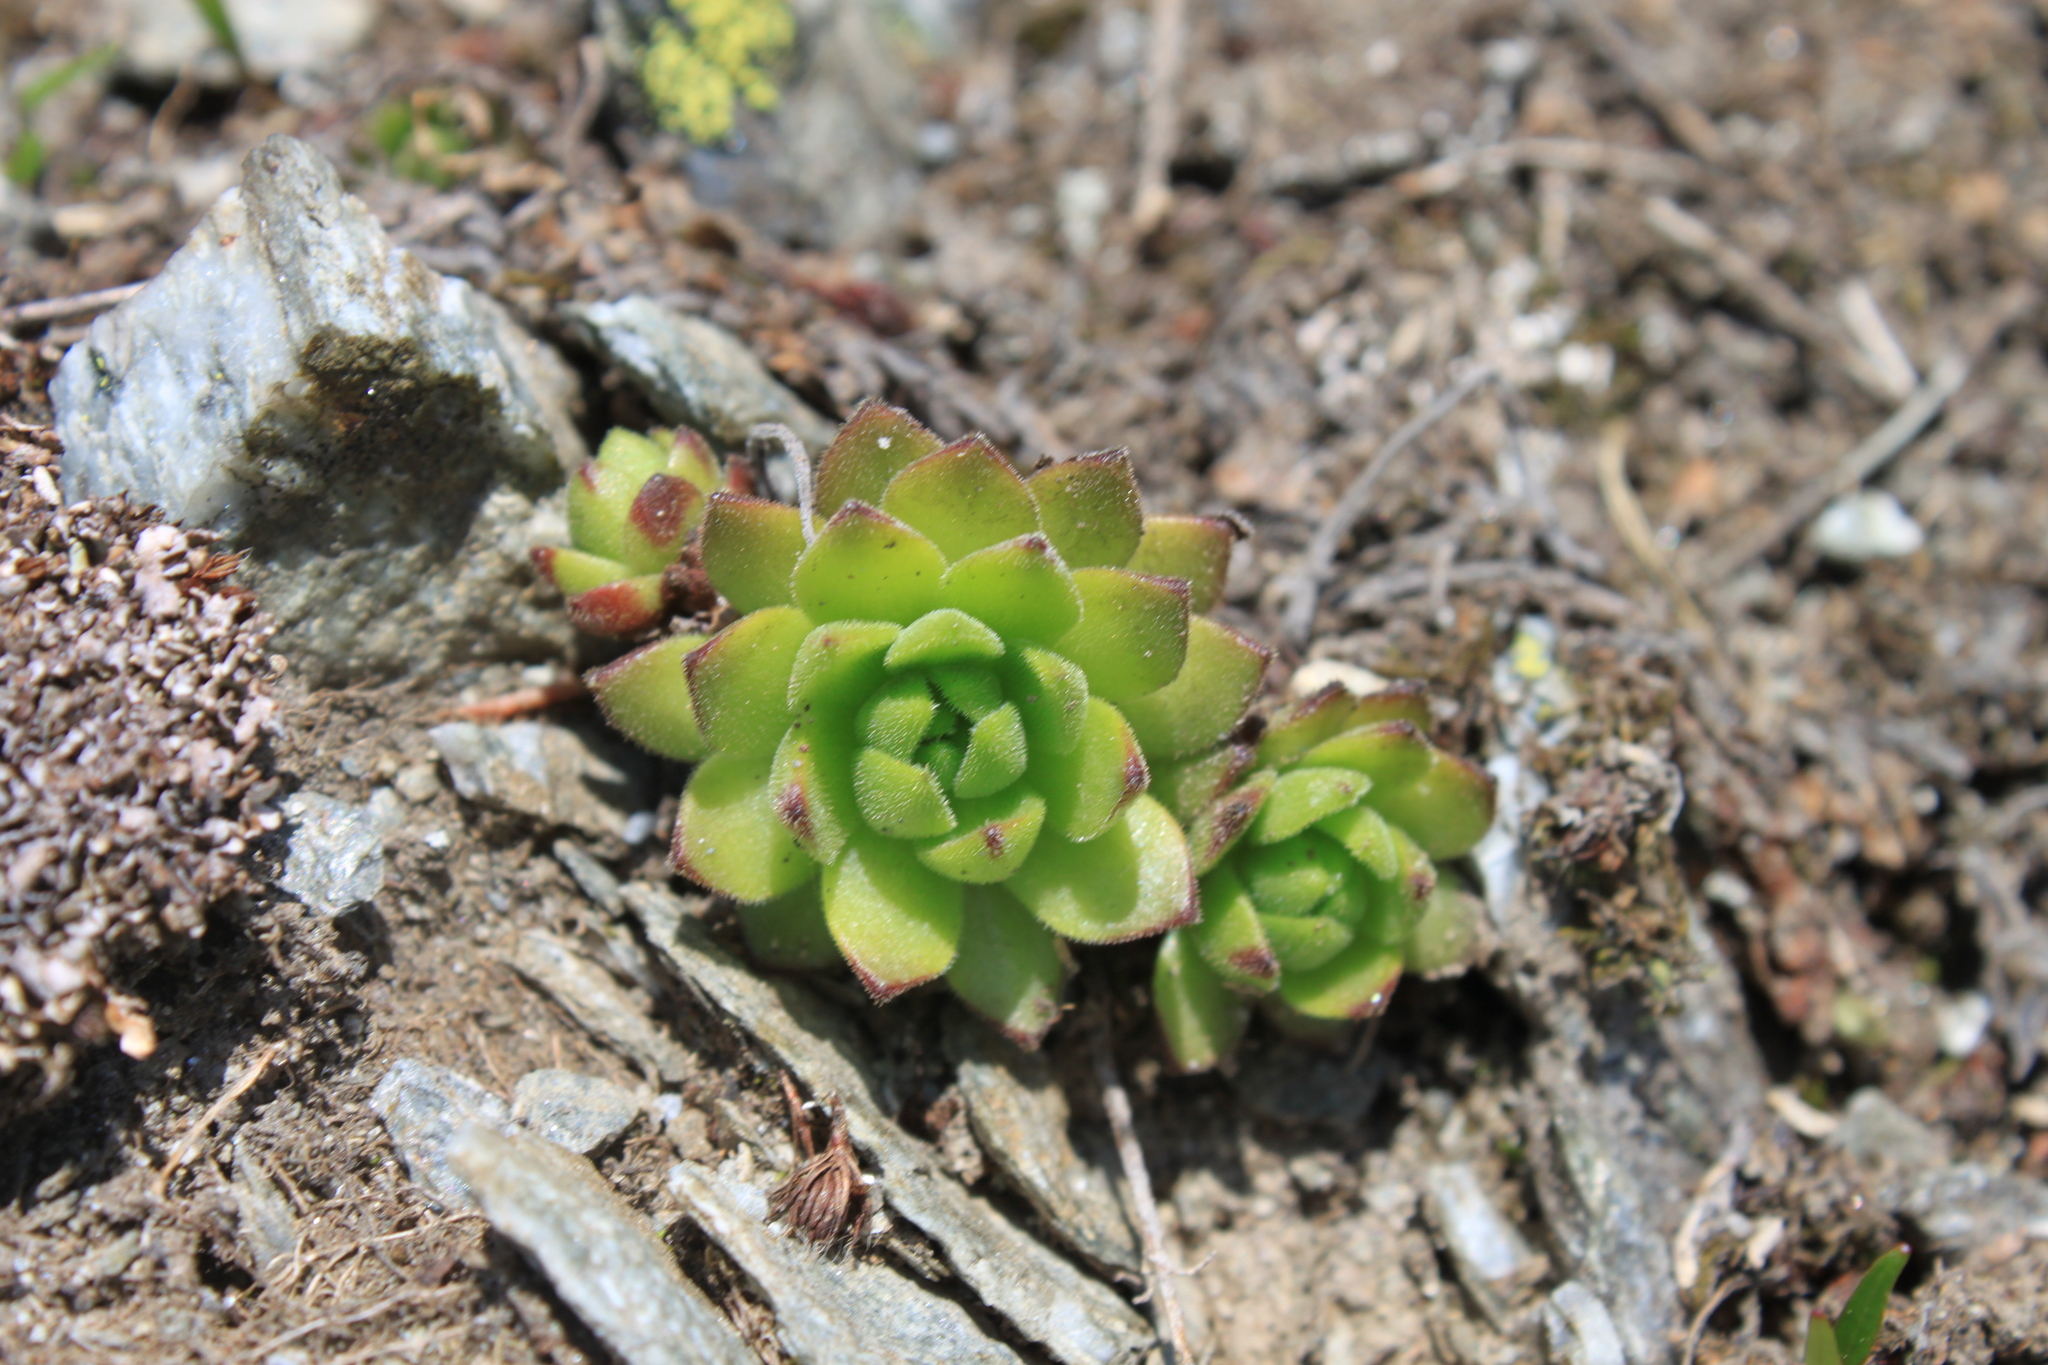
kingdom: Plantae
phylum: Tracheophyta
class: Magnoliopsida
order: Saxifragales
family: Crassulaceae
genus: Sempervivum
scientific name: Sempervivum montanum
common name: Mountain house-leek
